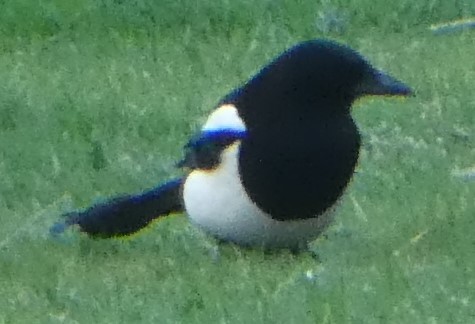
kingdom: Animalia
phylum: Chordata
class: Aves
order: Passeriformes
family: Corvidae
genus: Pica
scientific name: Pica pica
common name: Eurasian magpie
